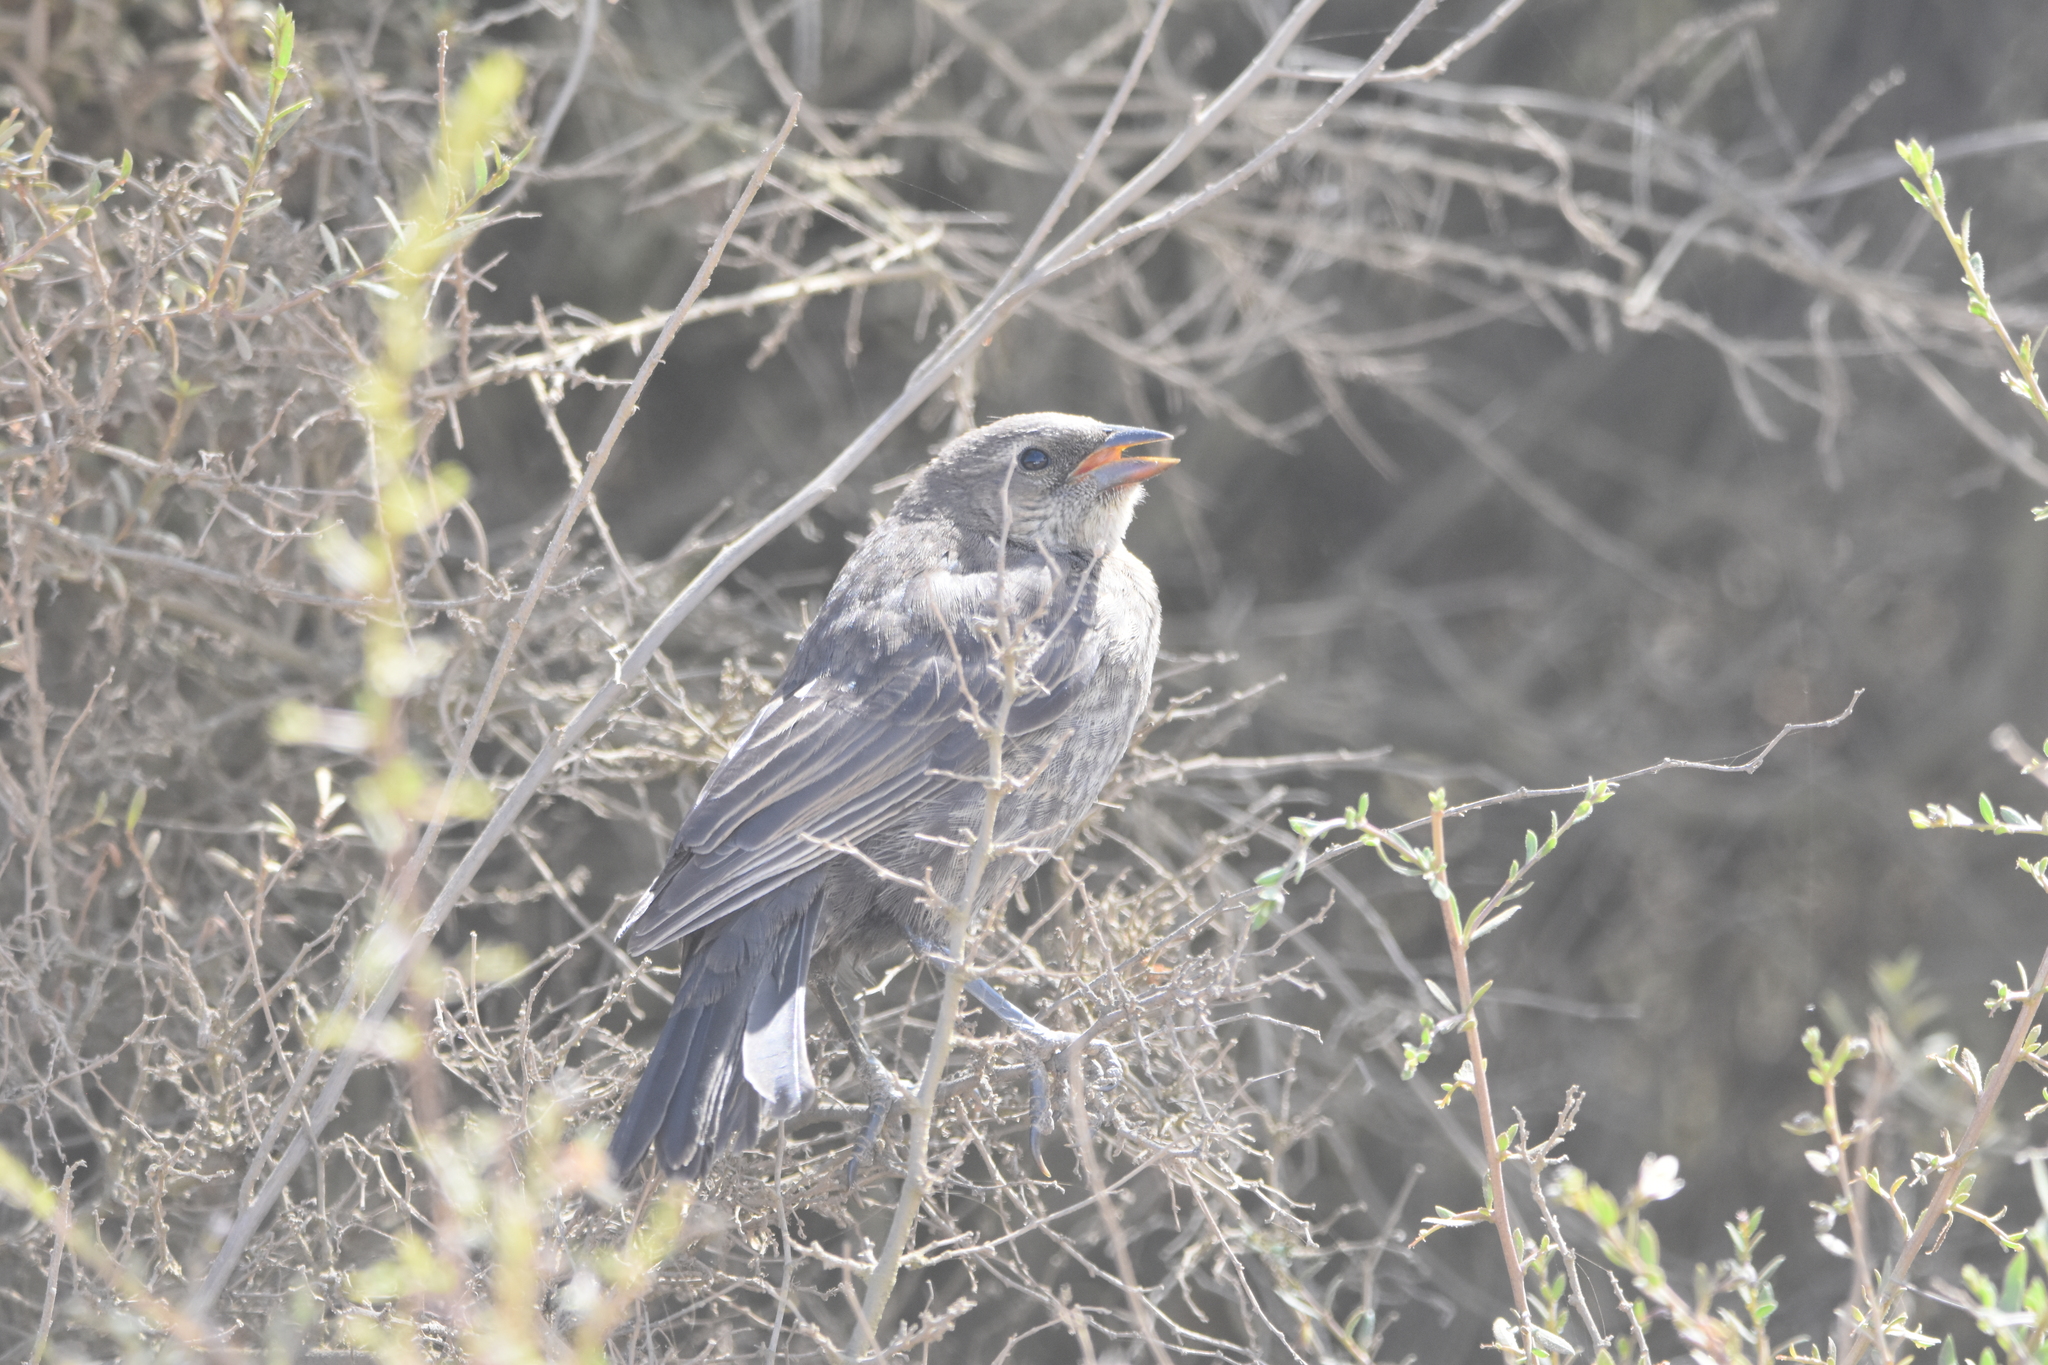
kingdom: Animalia
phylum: Chordata
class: Aves
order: Passeriformes
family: Icteridae
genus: Molothrus
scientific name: Molothrus bonariensis
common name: Shiny cowbird
